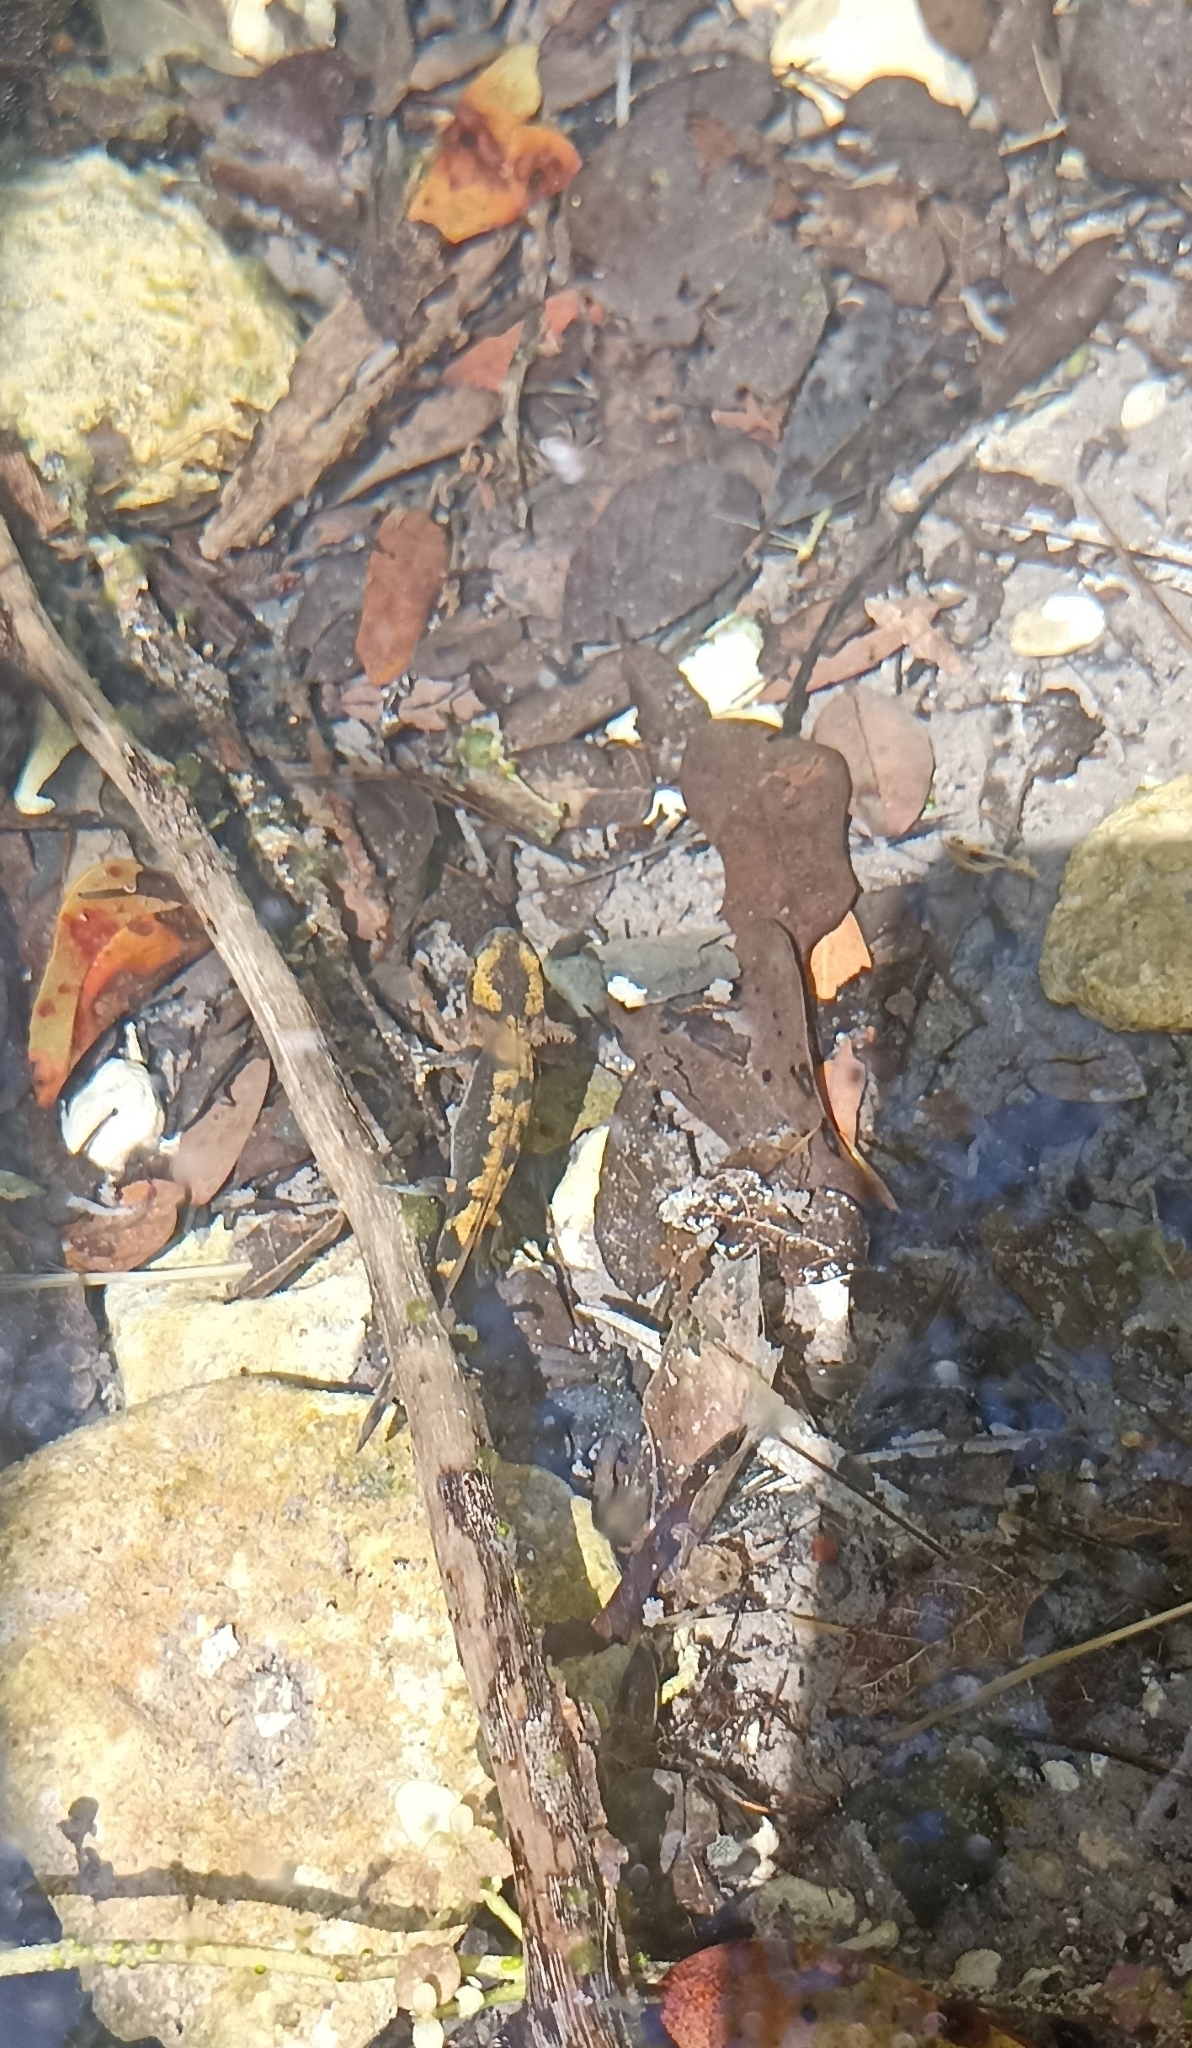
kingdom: Animalia
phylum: Chordata
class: Amphibia
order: Caudata
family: Salamandridae
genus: Salamandra
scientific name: Salamandra salamandra
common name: Fire salamander
